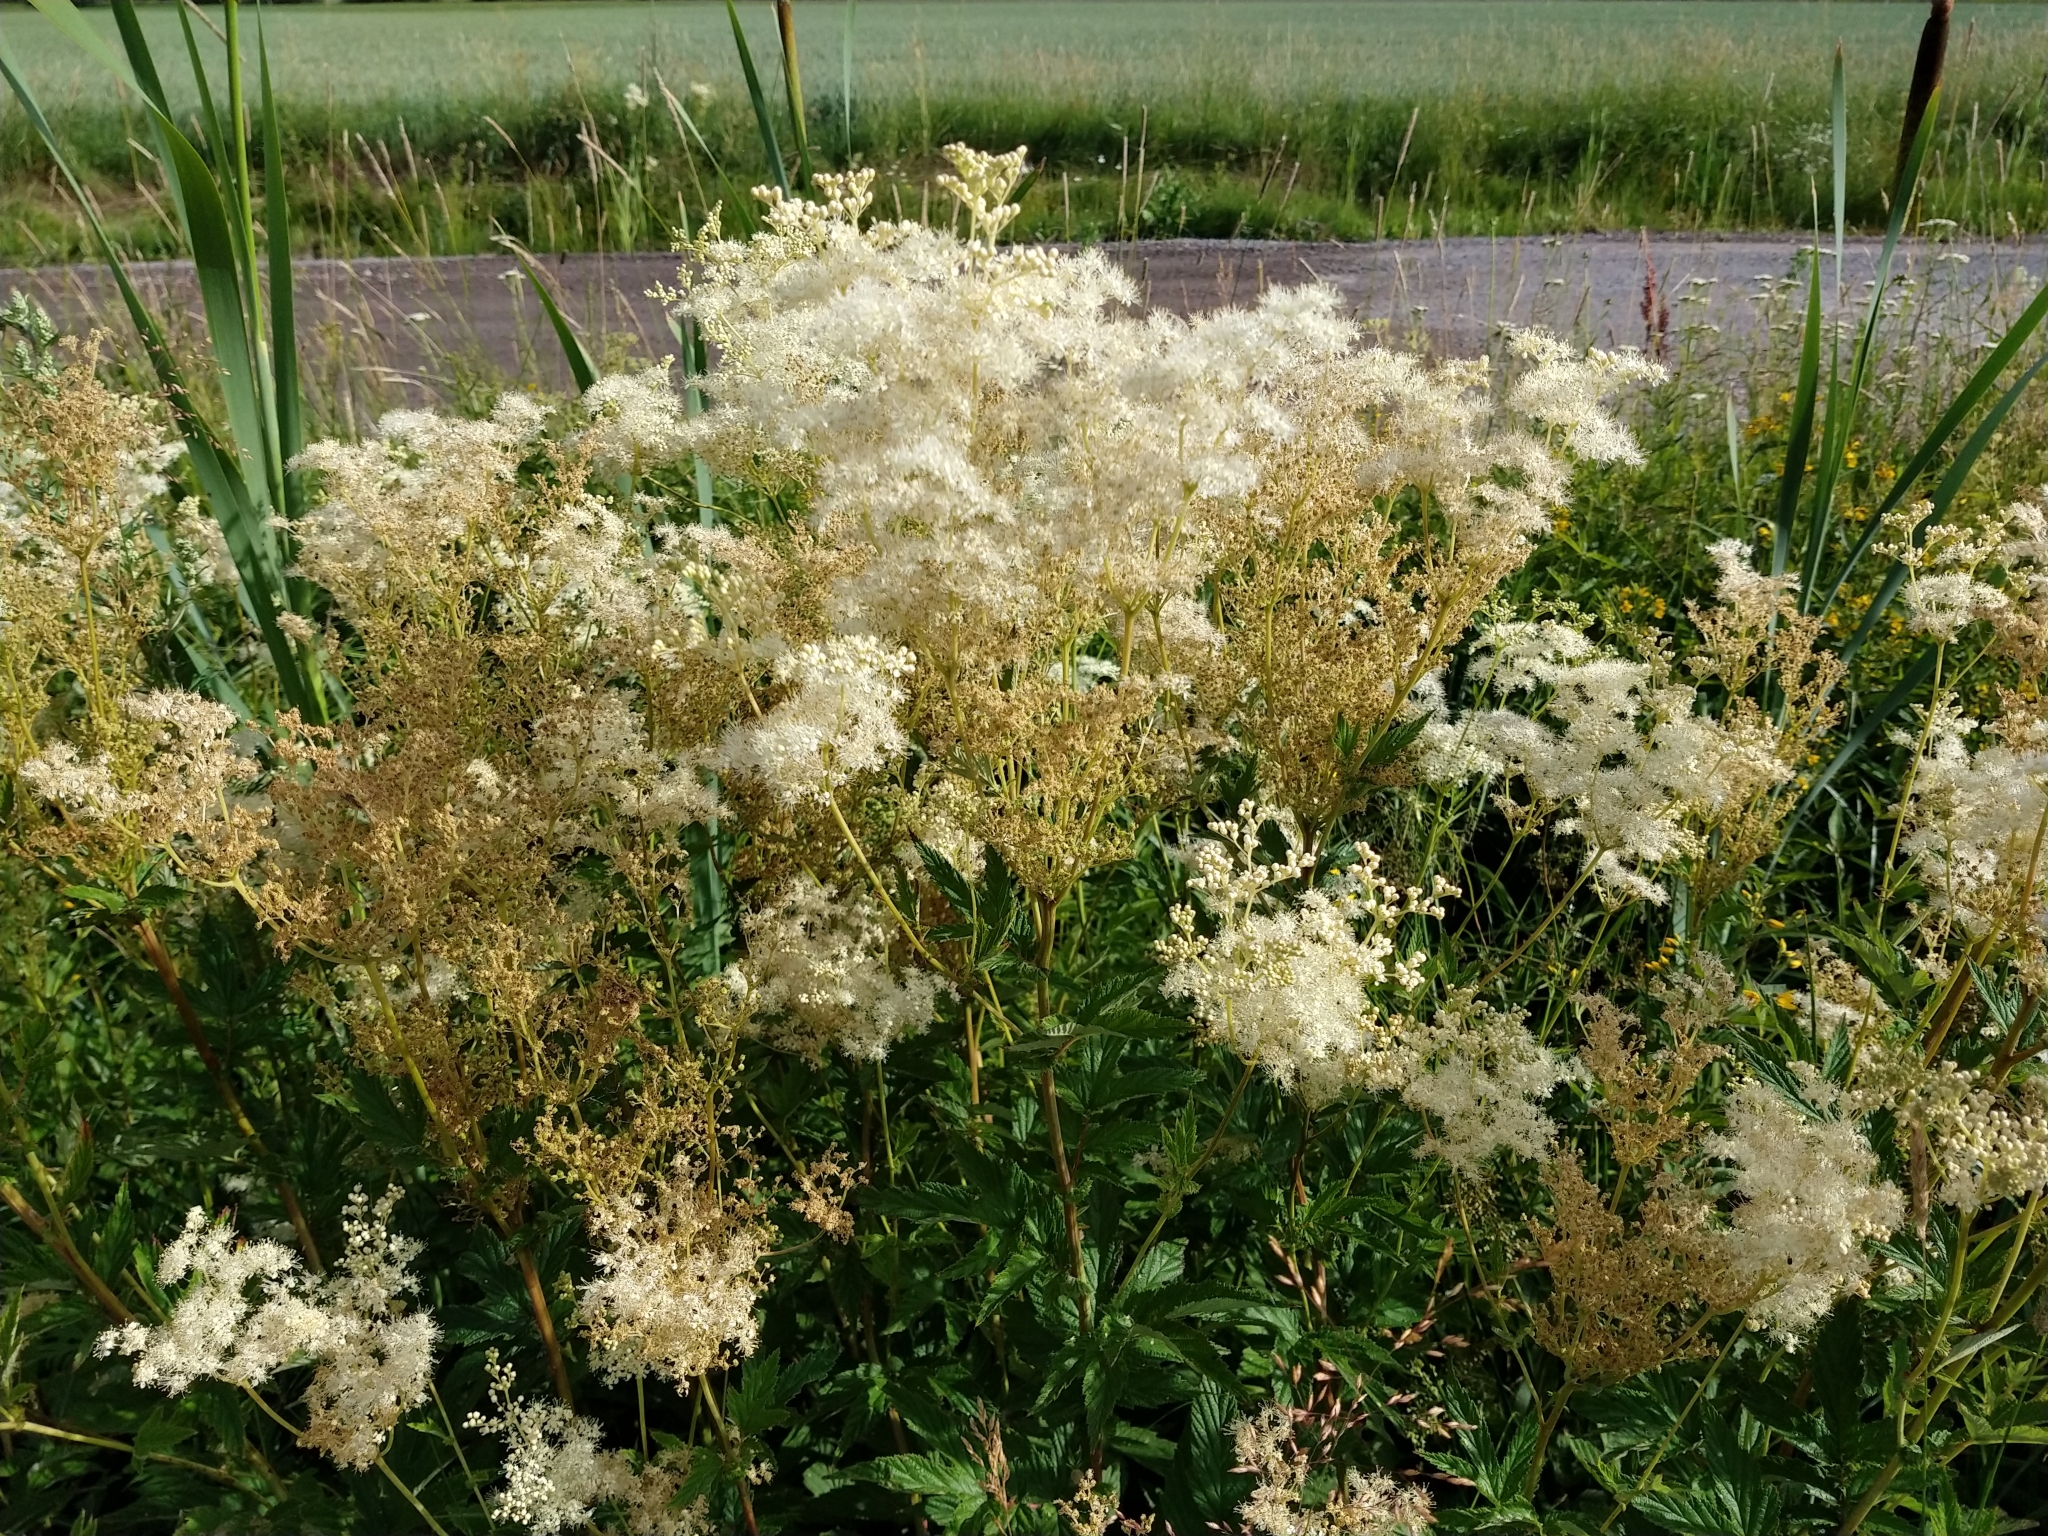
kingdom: Plantae
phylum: Tracheophyta
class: Magnoliopsida
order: Rosales
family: Rosaceae
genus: Filipendula
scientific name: Filipendula ulmaria
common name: Meadowsweet
